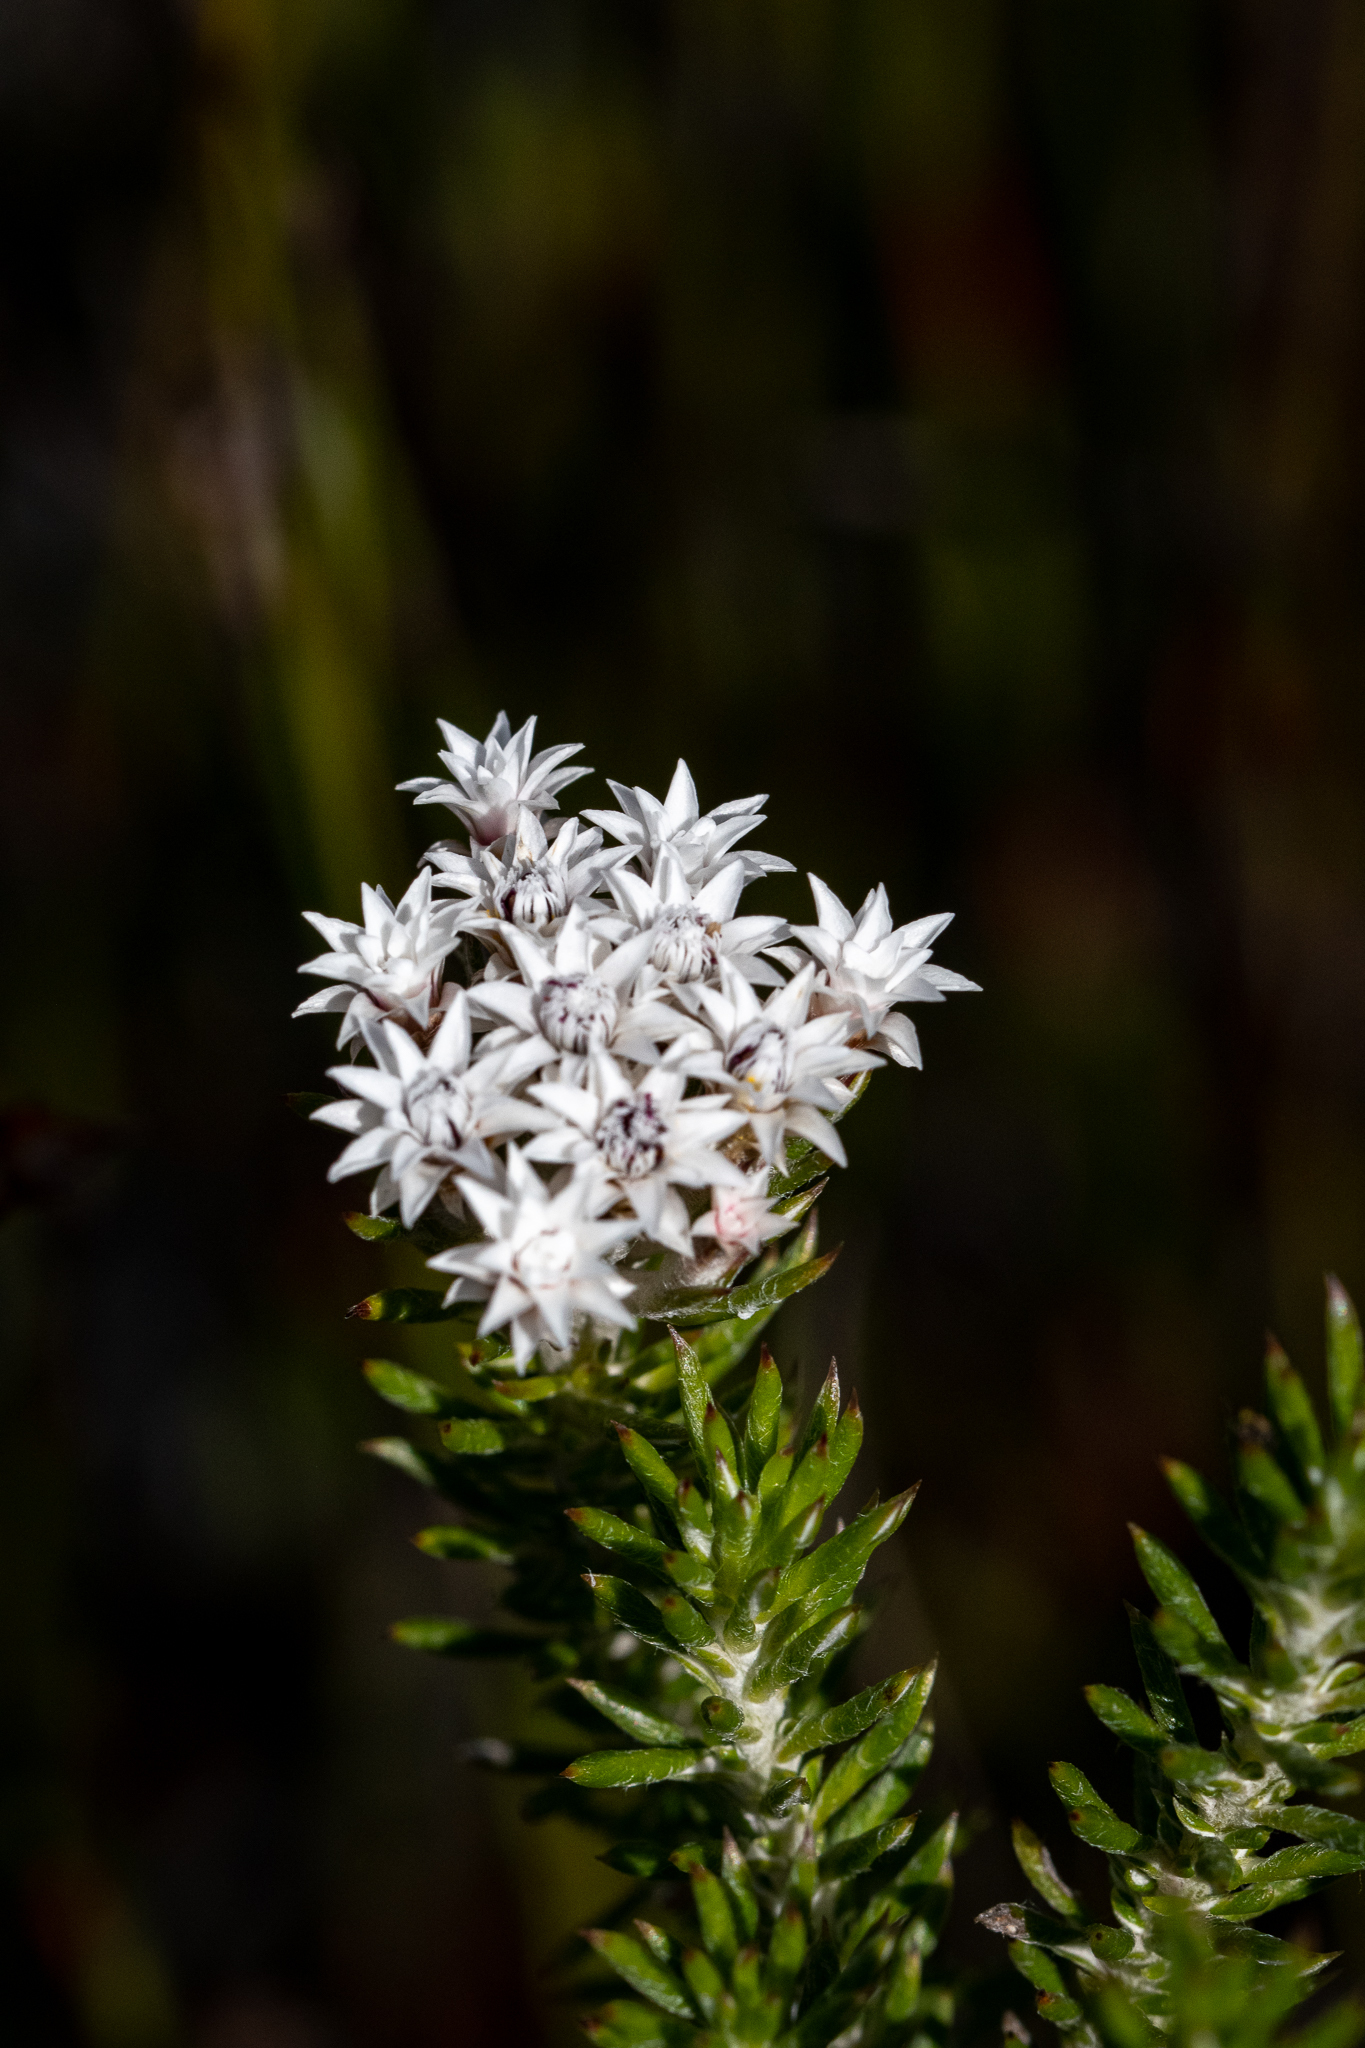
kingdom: Plantae
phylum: Tracheophyta
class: Magnoliopsida
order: Asterales
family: Asteraceae
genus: Metalasia
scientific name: Metalasia lichtensteinii
